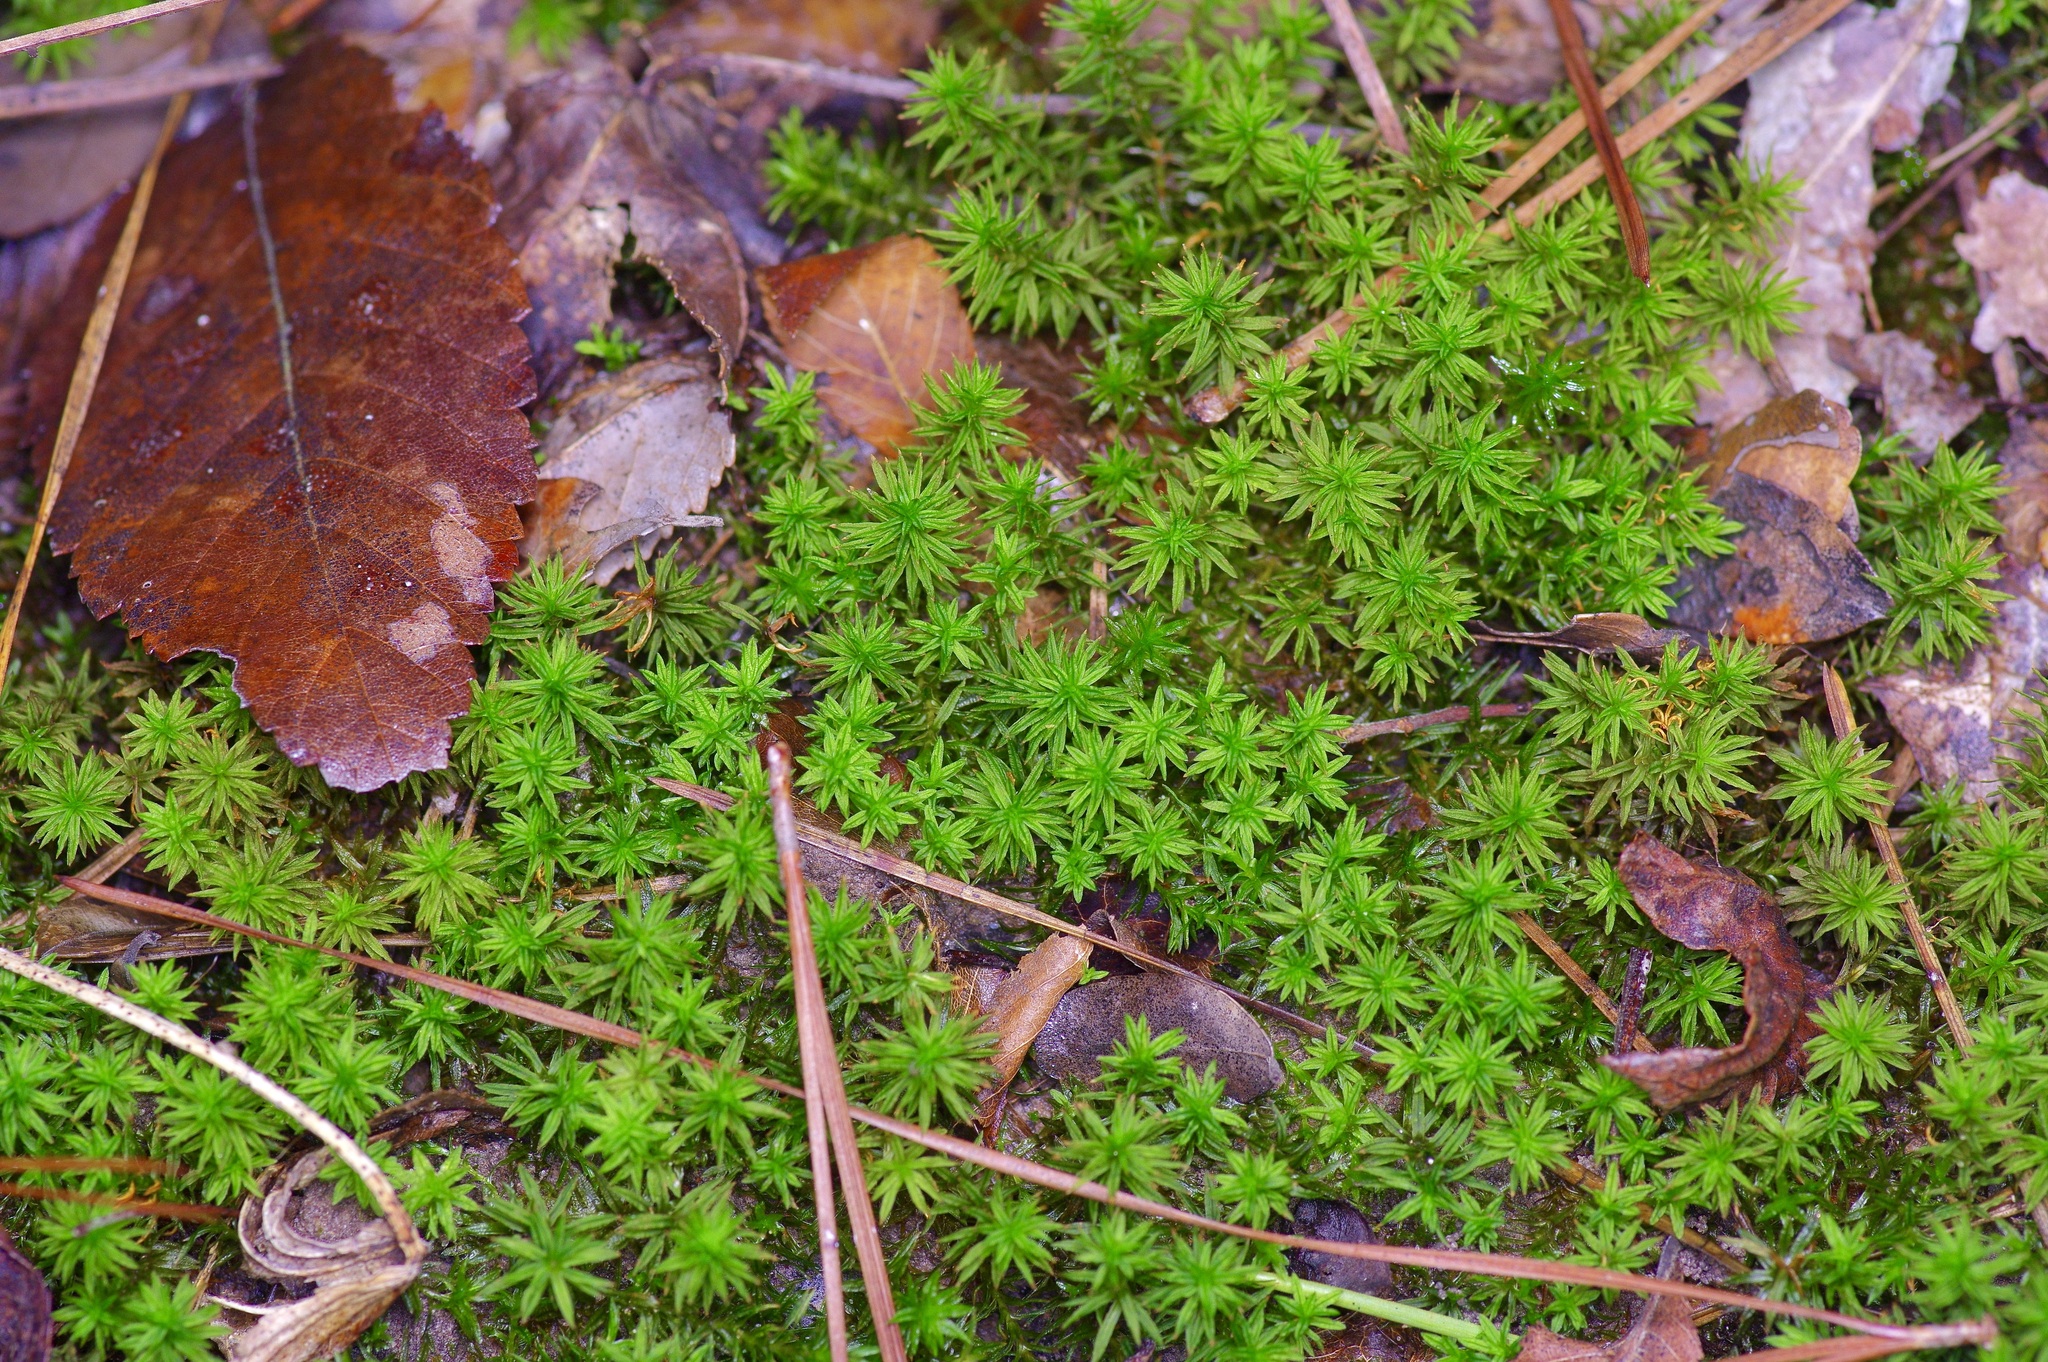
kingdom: Plantae
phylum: Bryophyta
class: Polytrichopsida
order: Polytrichales
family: Polytrichaceae
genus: Atrichum
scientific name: Atrichum angustatum
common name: Lesser smoothcap
